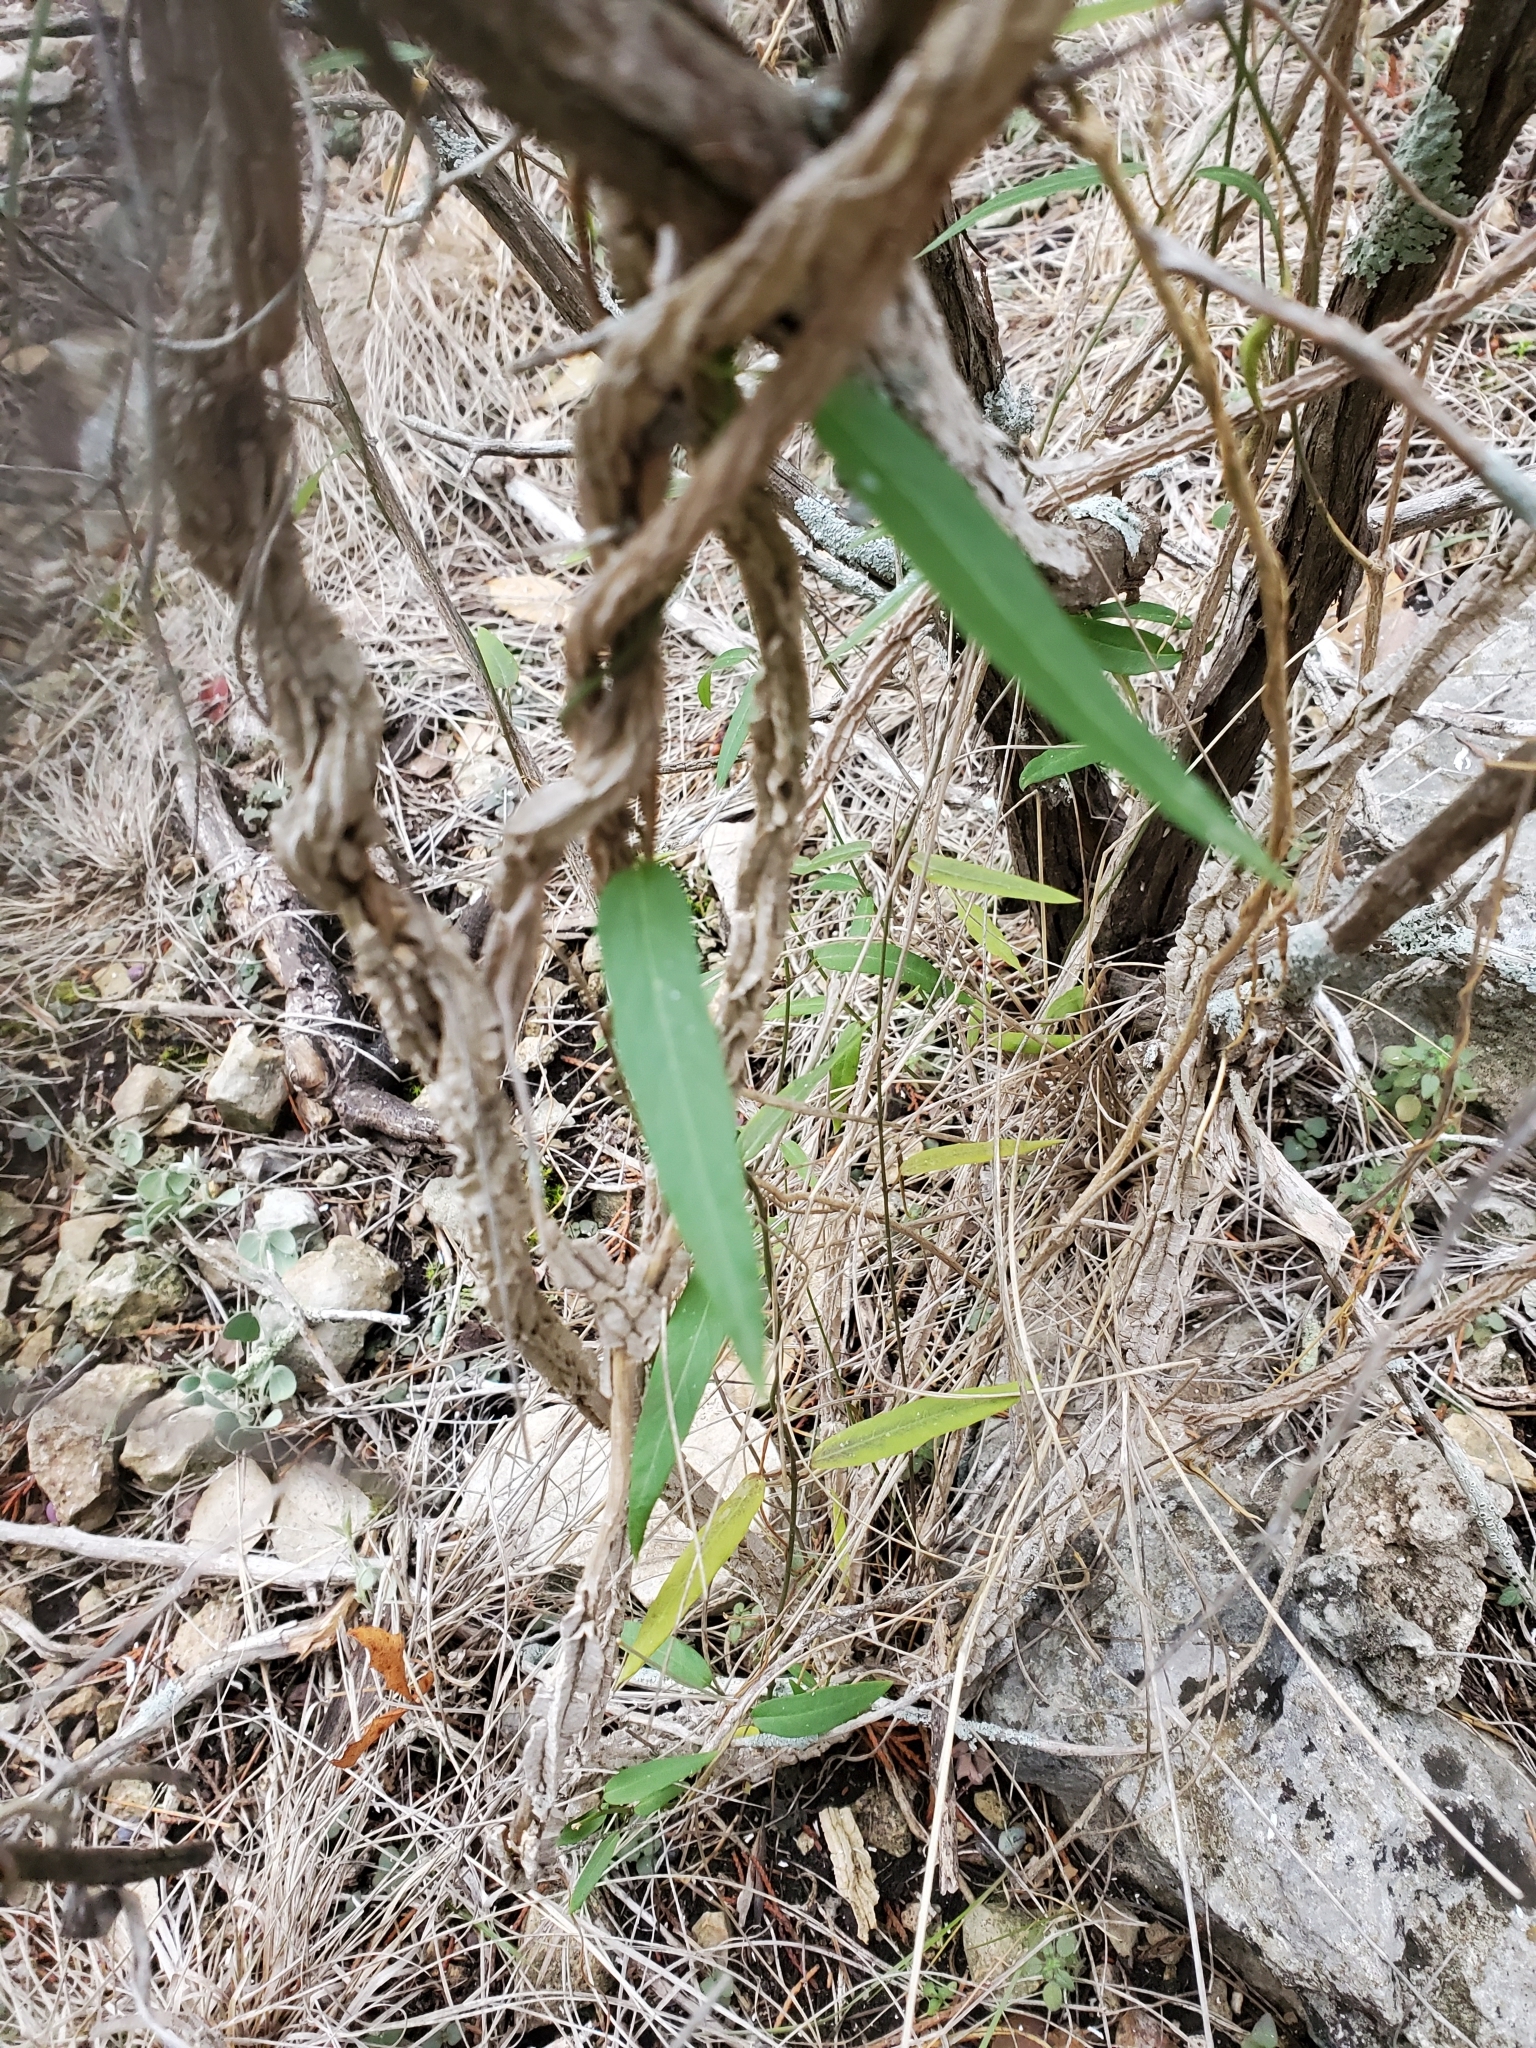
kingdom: Plantae
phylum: Tracheophyta
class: Magnoliopsida
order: Gentianales
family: Apocynaceae
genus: Metastelma
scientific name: Metastelma barbigerum
